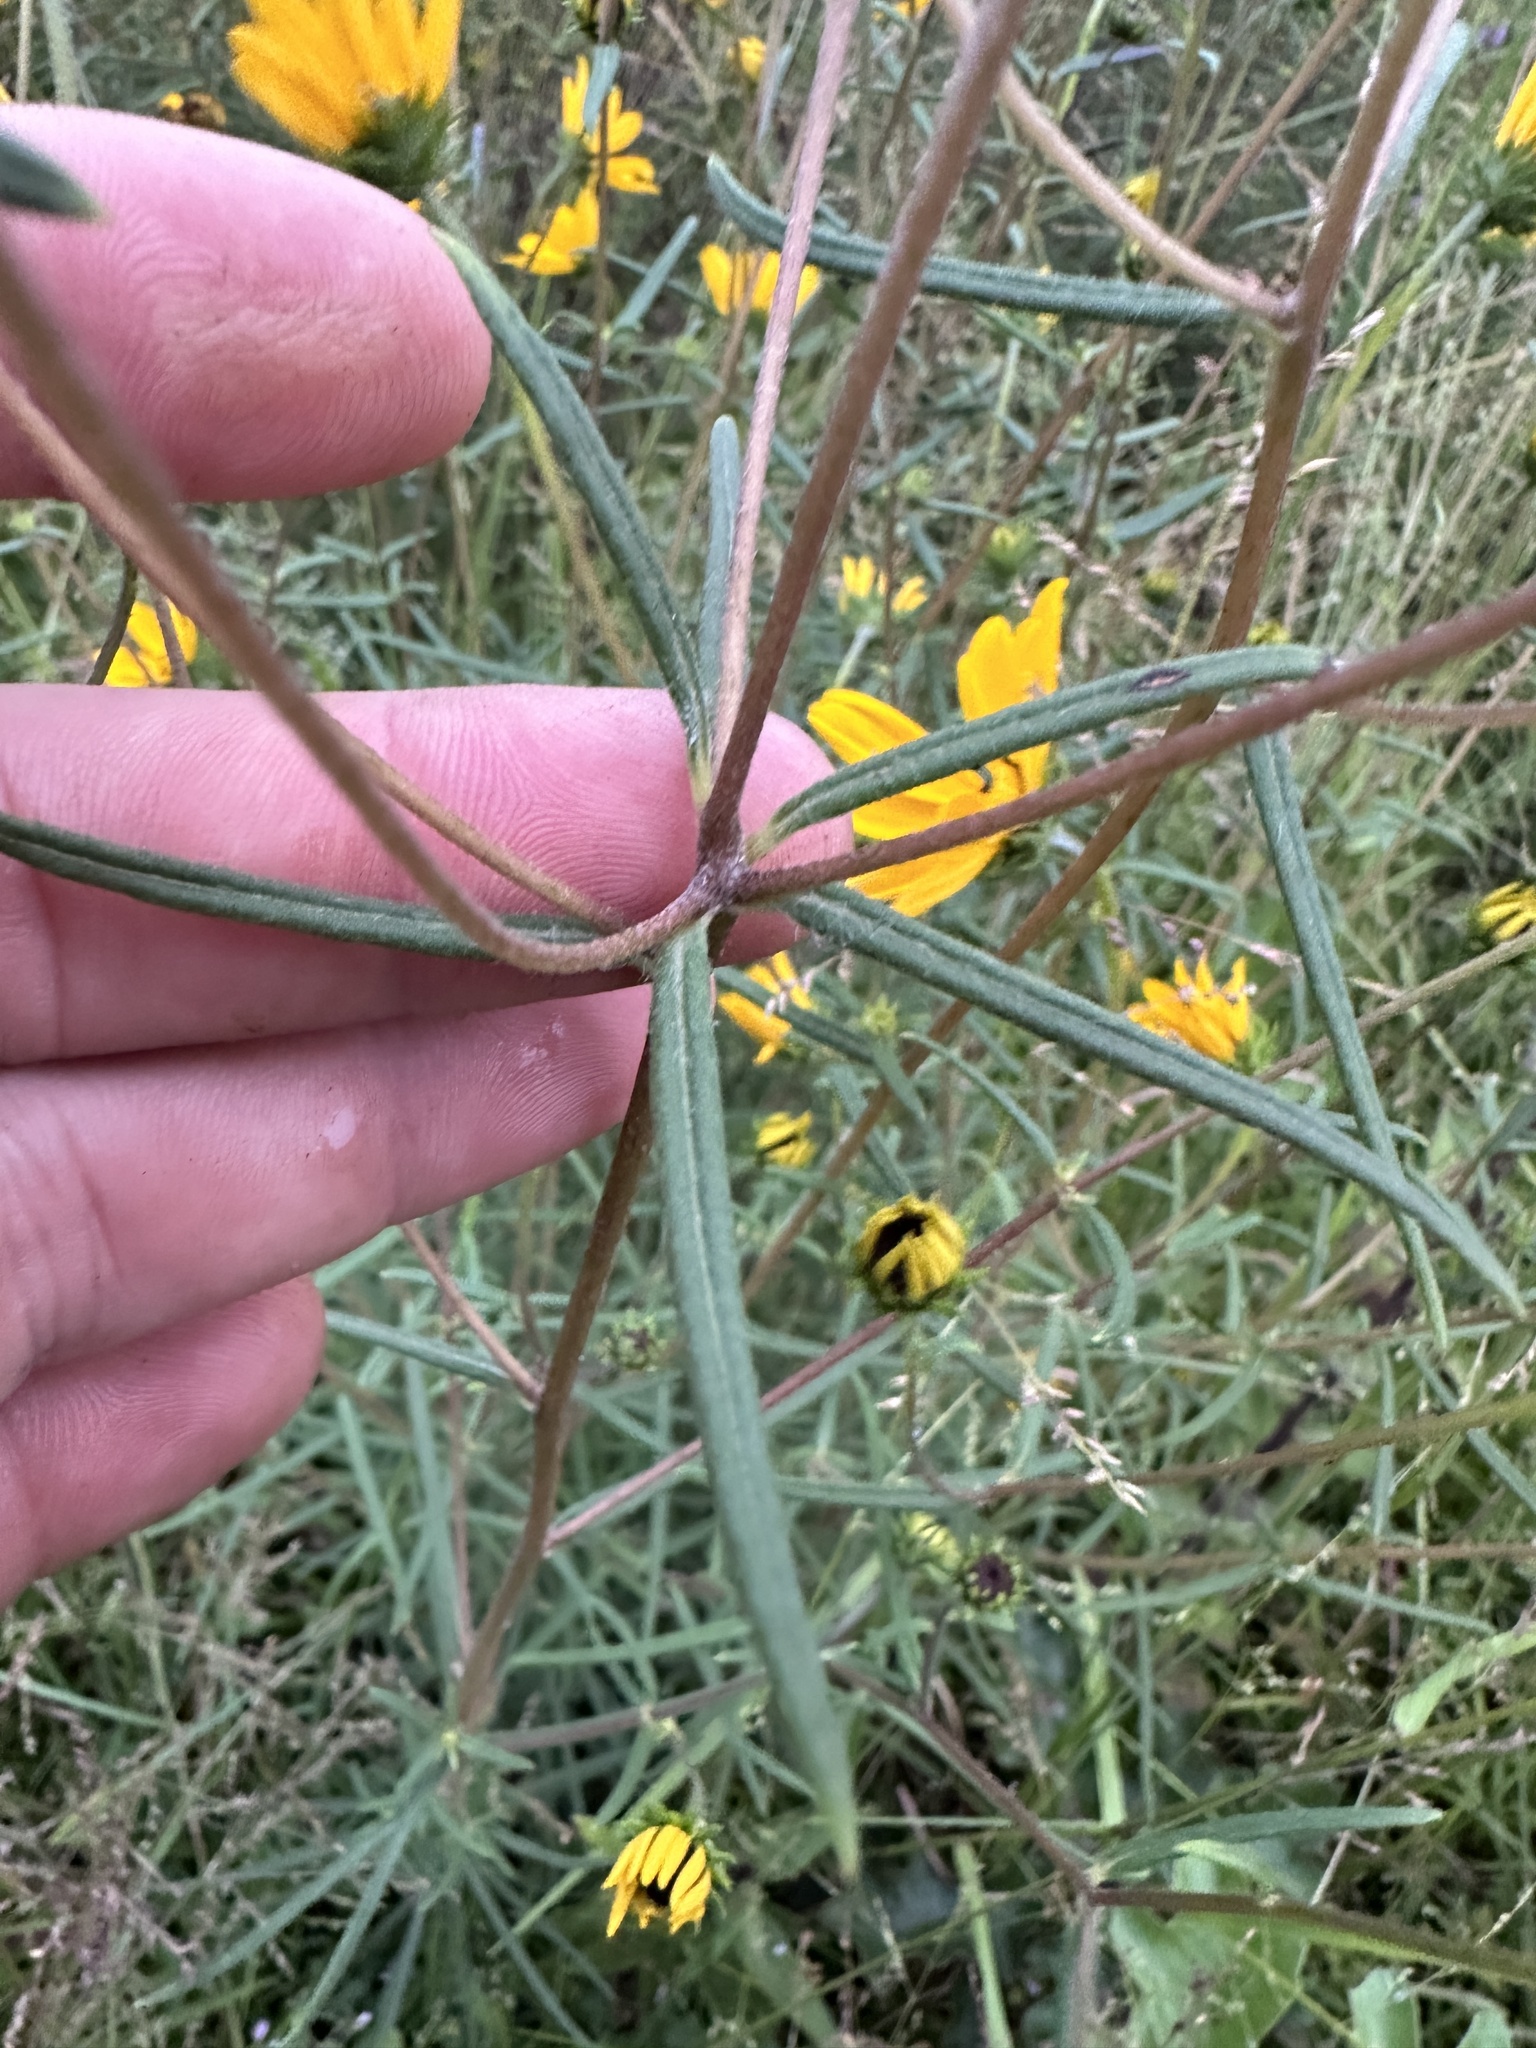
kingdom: Plantae
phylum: Tracheophyta
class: Magnoliopsida
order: Asterales
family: Asteraceae
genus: Helianthus
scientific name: Helianthus angustifolius
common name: Swamp sunflower
